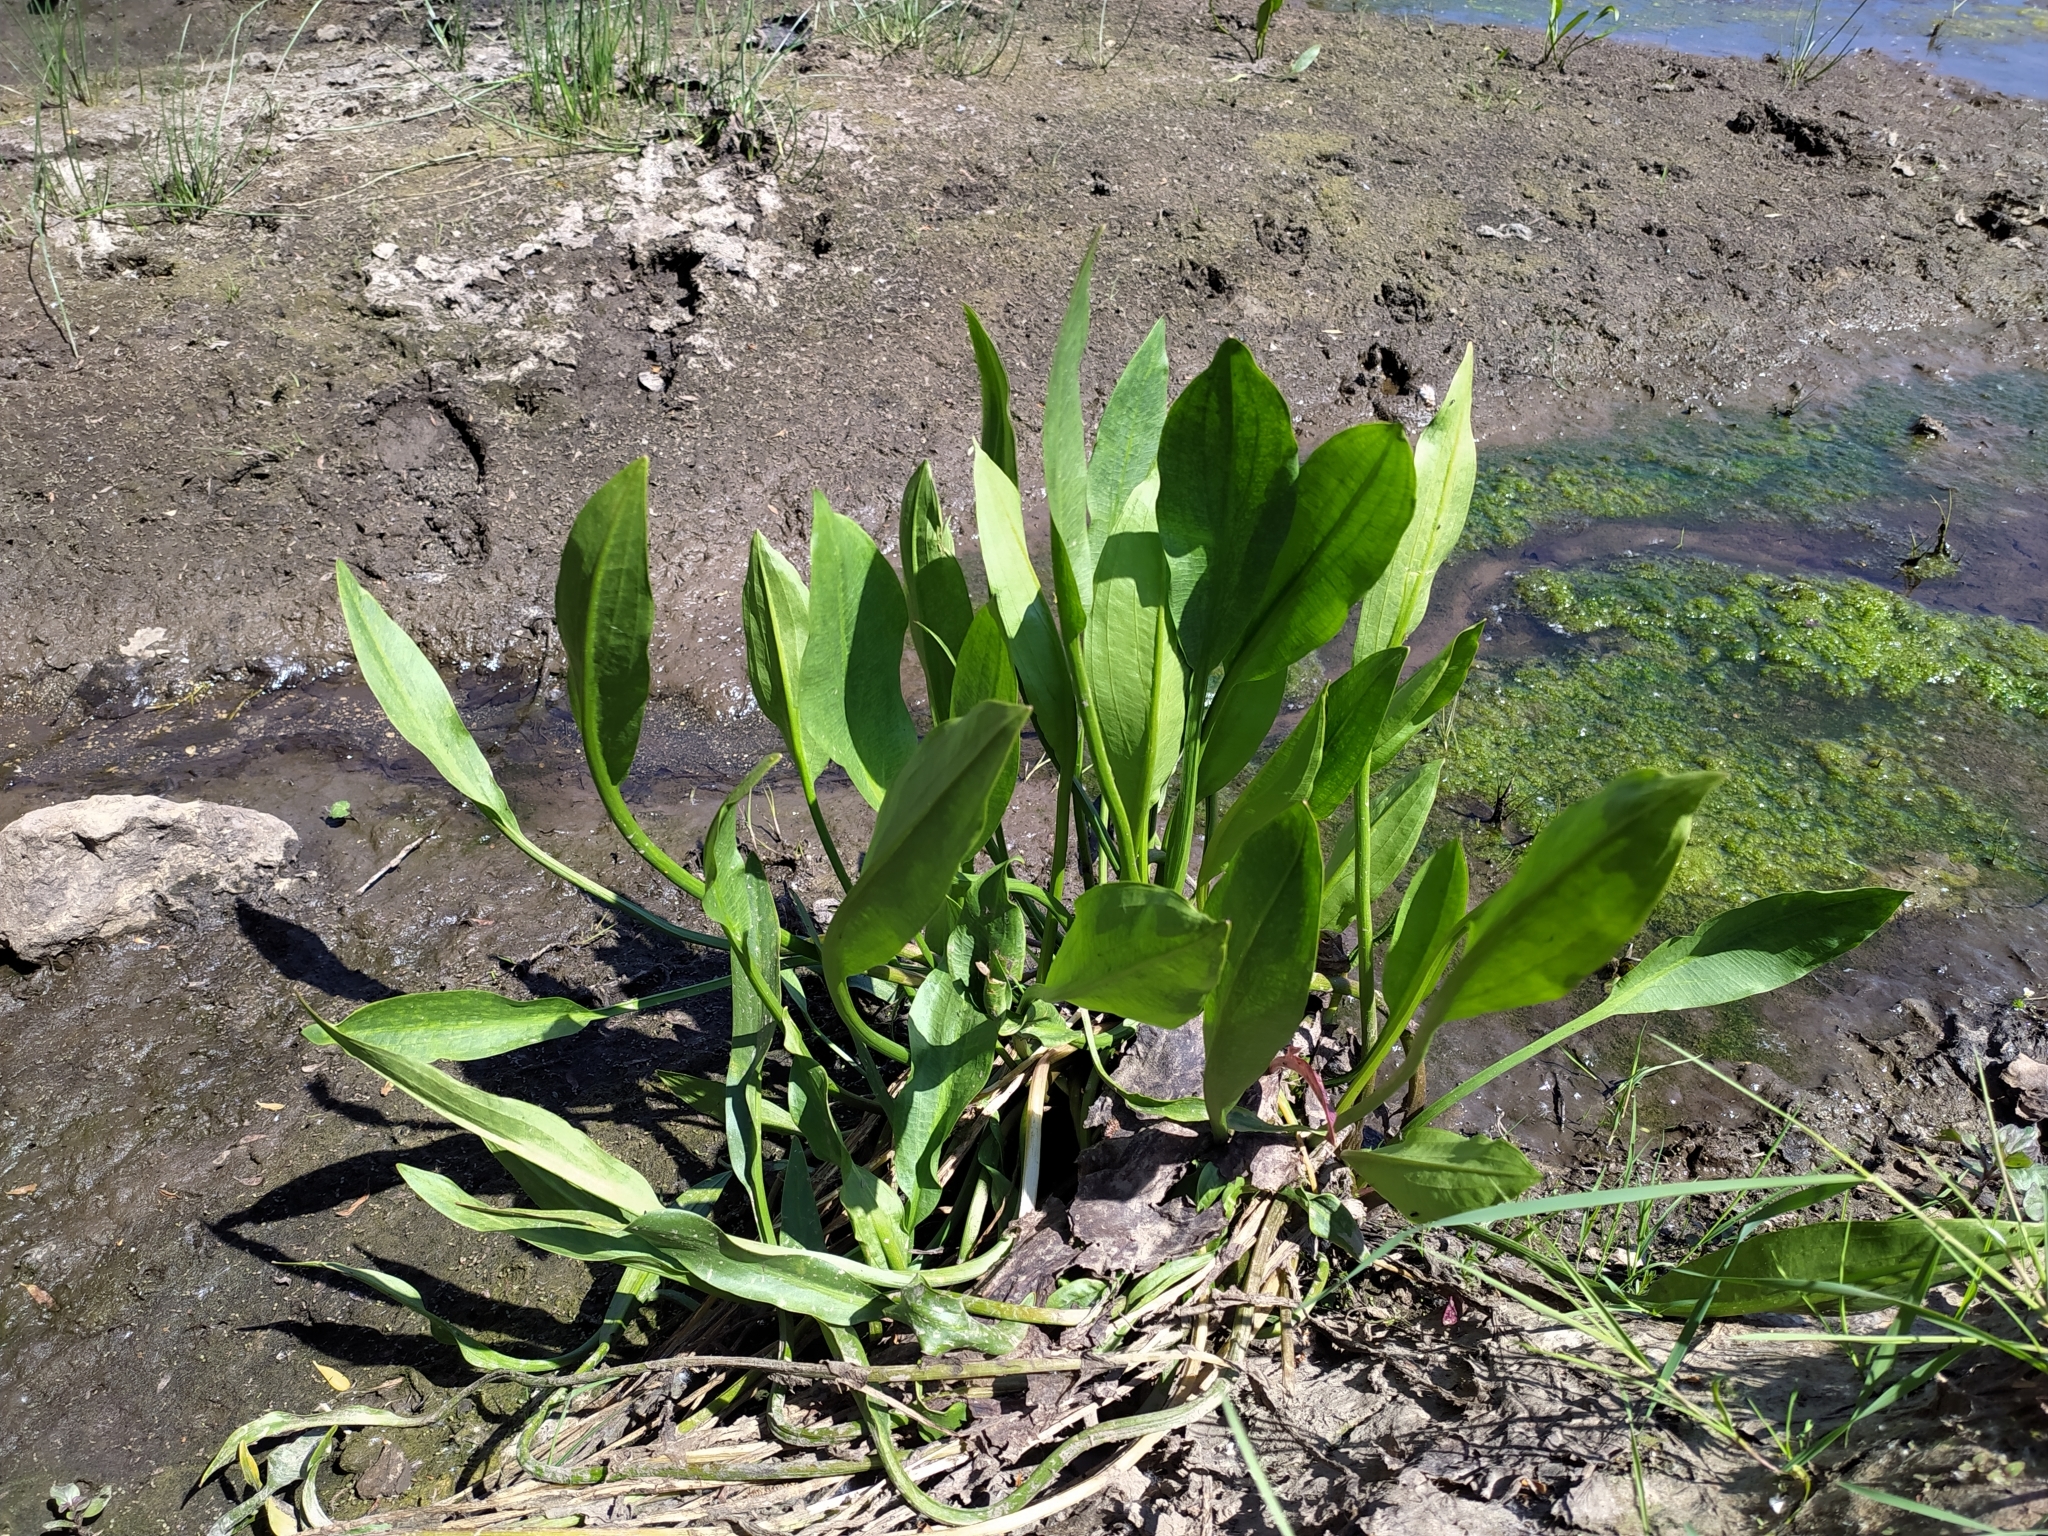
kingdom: Plantae
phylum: Tracheophyta
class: Liliopsida
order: Alismatales
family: Alismataceae
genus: Alisma
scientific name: Alisma plantago-aquatica
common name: Water-plantain
